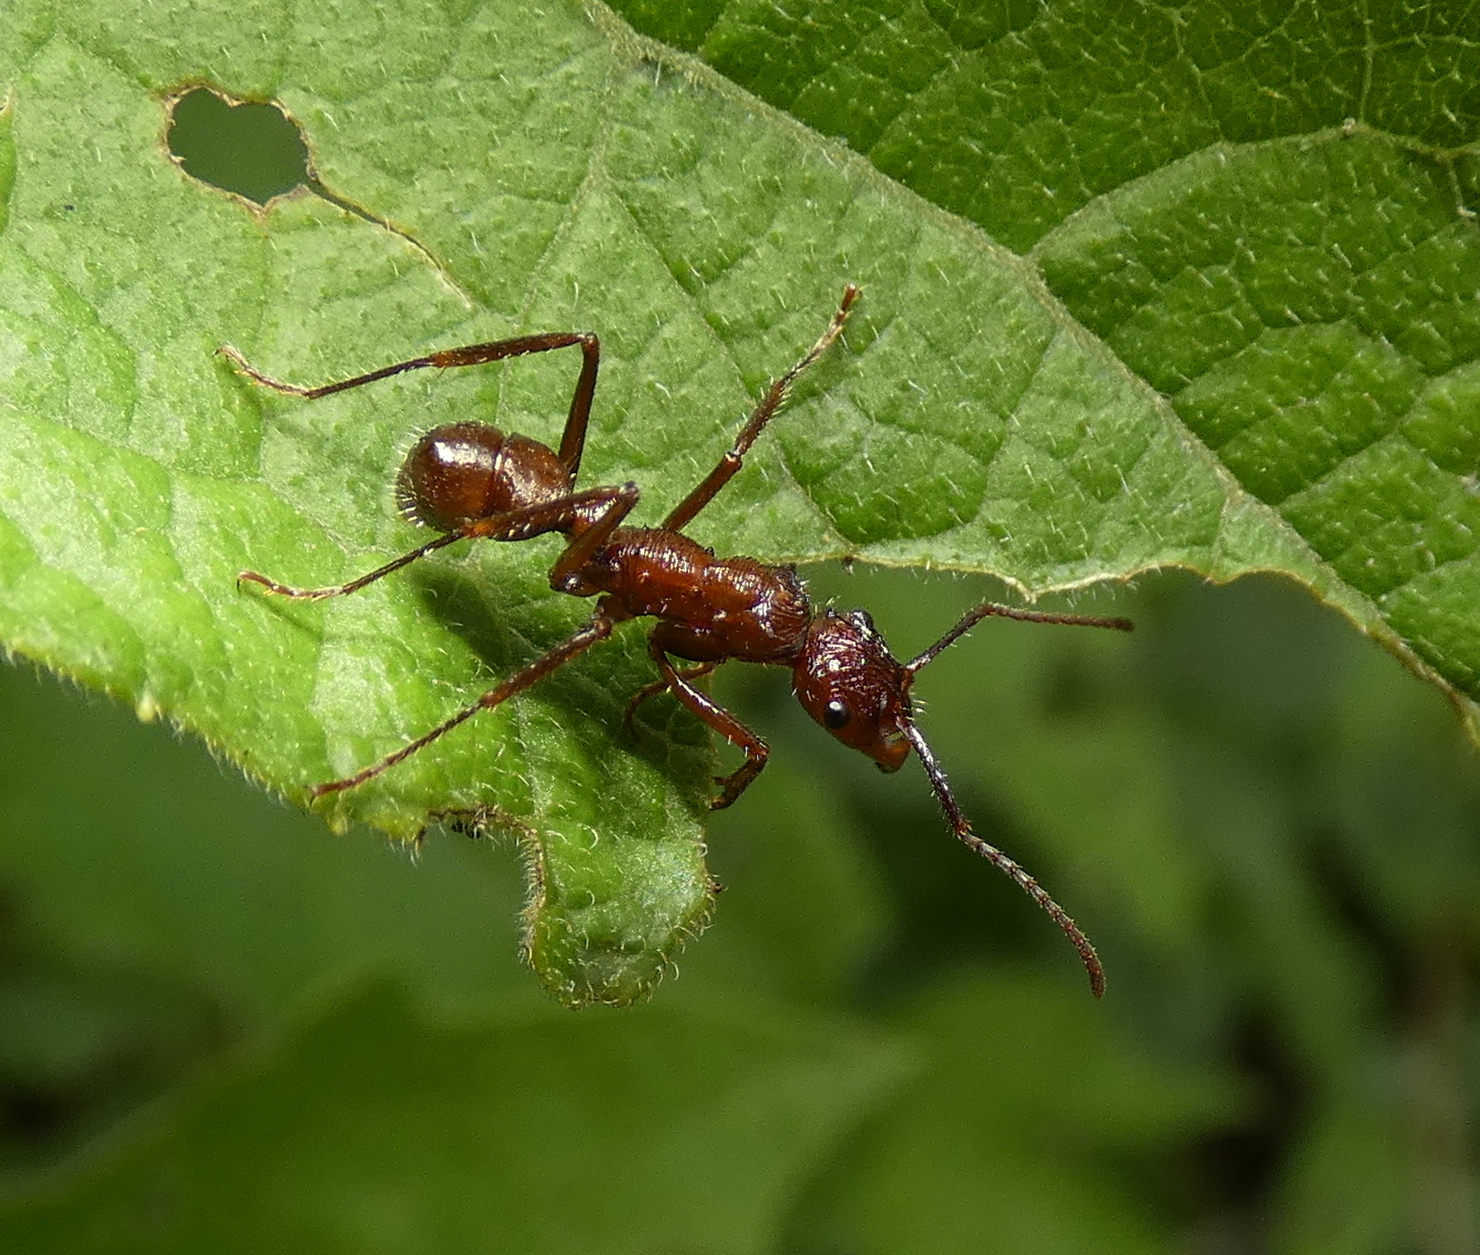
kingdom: Animalia
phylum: Arthropoda
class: Insecta
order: Hymenoptera
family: Formicidae
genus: Ectatomma
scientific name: Ectatomma tuberculatum
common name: Ant
